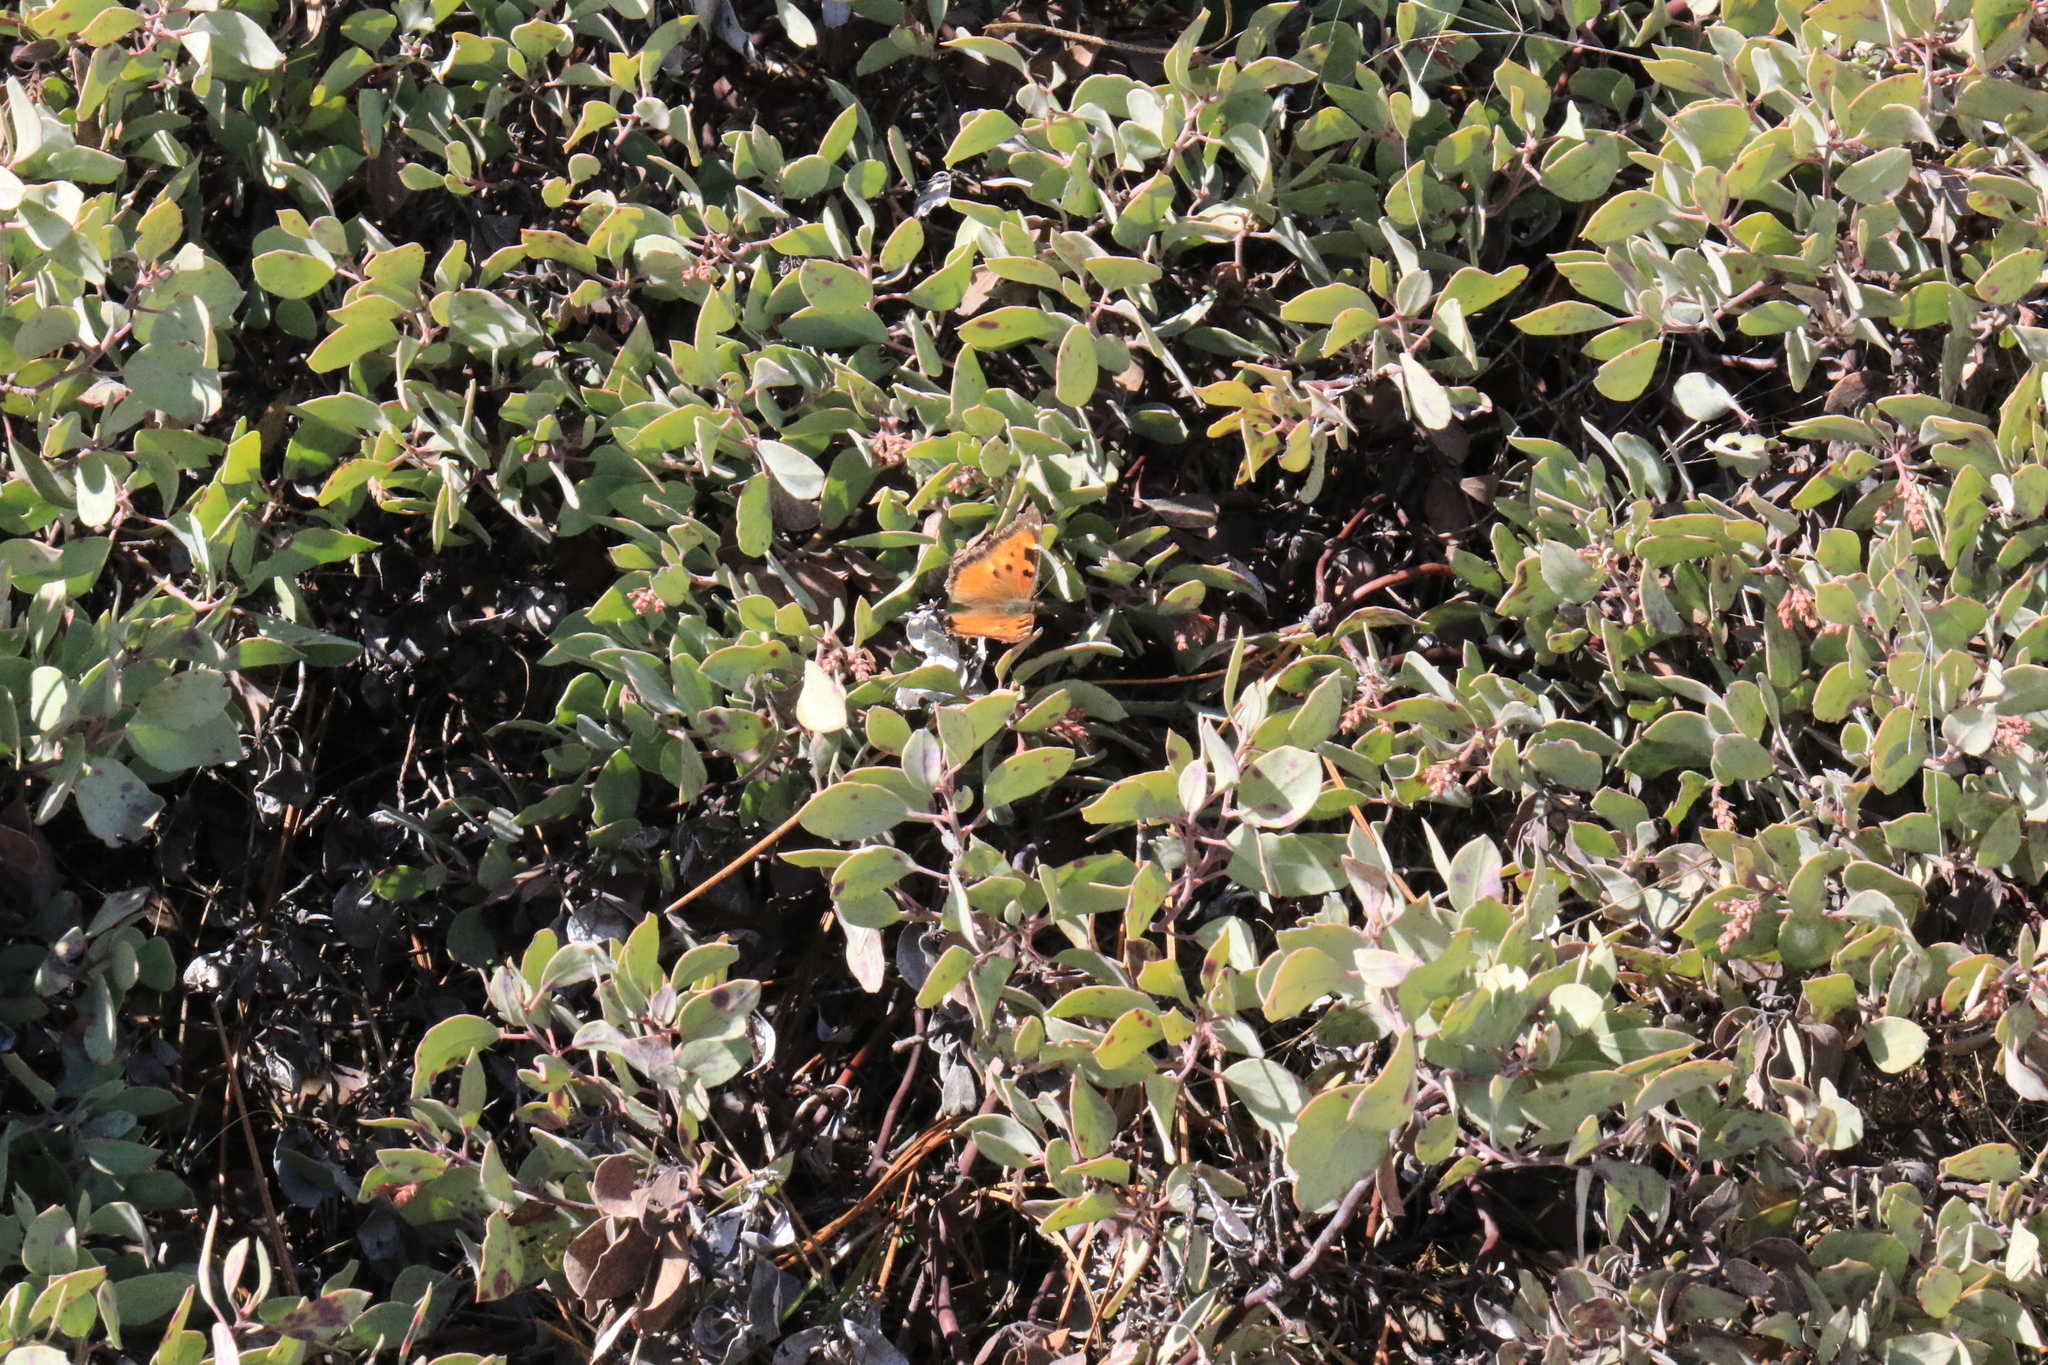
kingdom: Animalia
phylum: Arthropoda
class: Insecta
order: Lepidoptera
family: Nymphalidae
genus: Nymphalis
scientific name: Nymphalis californica
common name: California tortoiseshell
